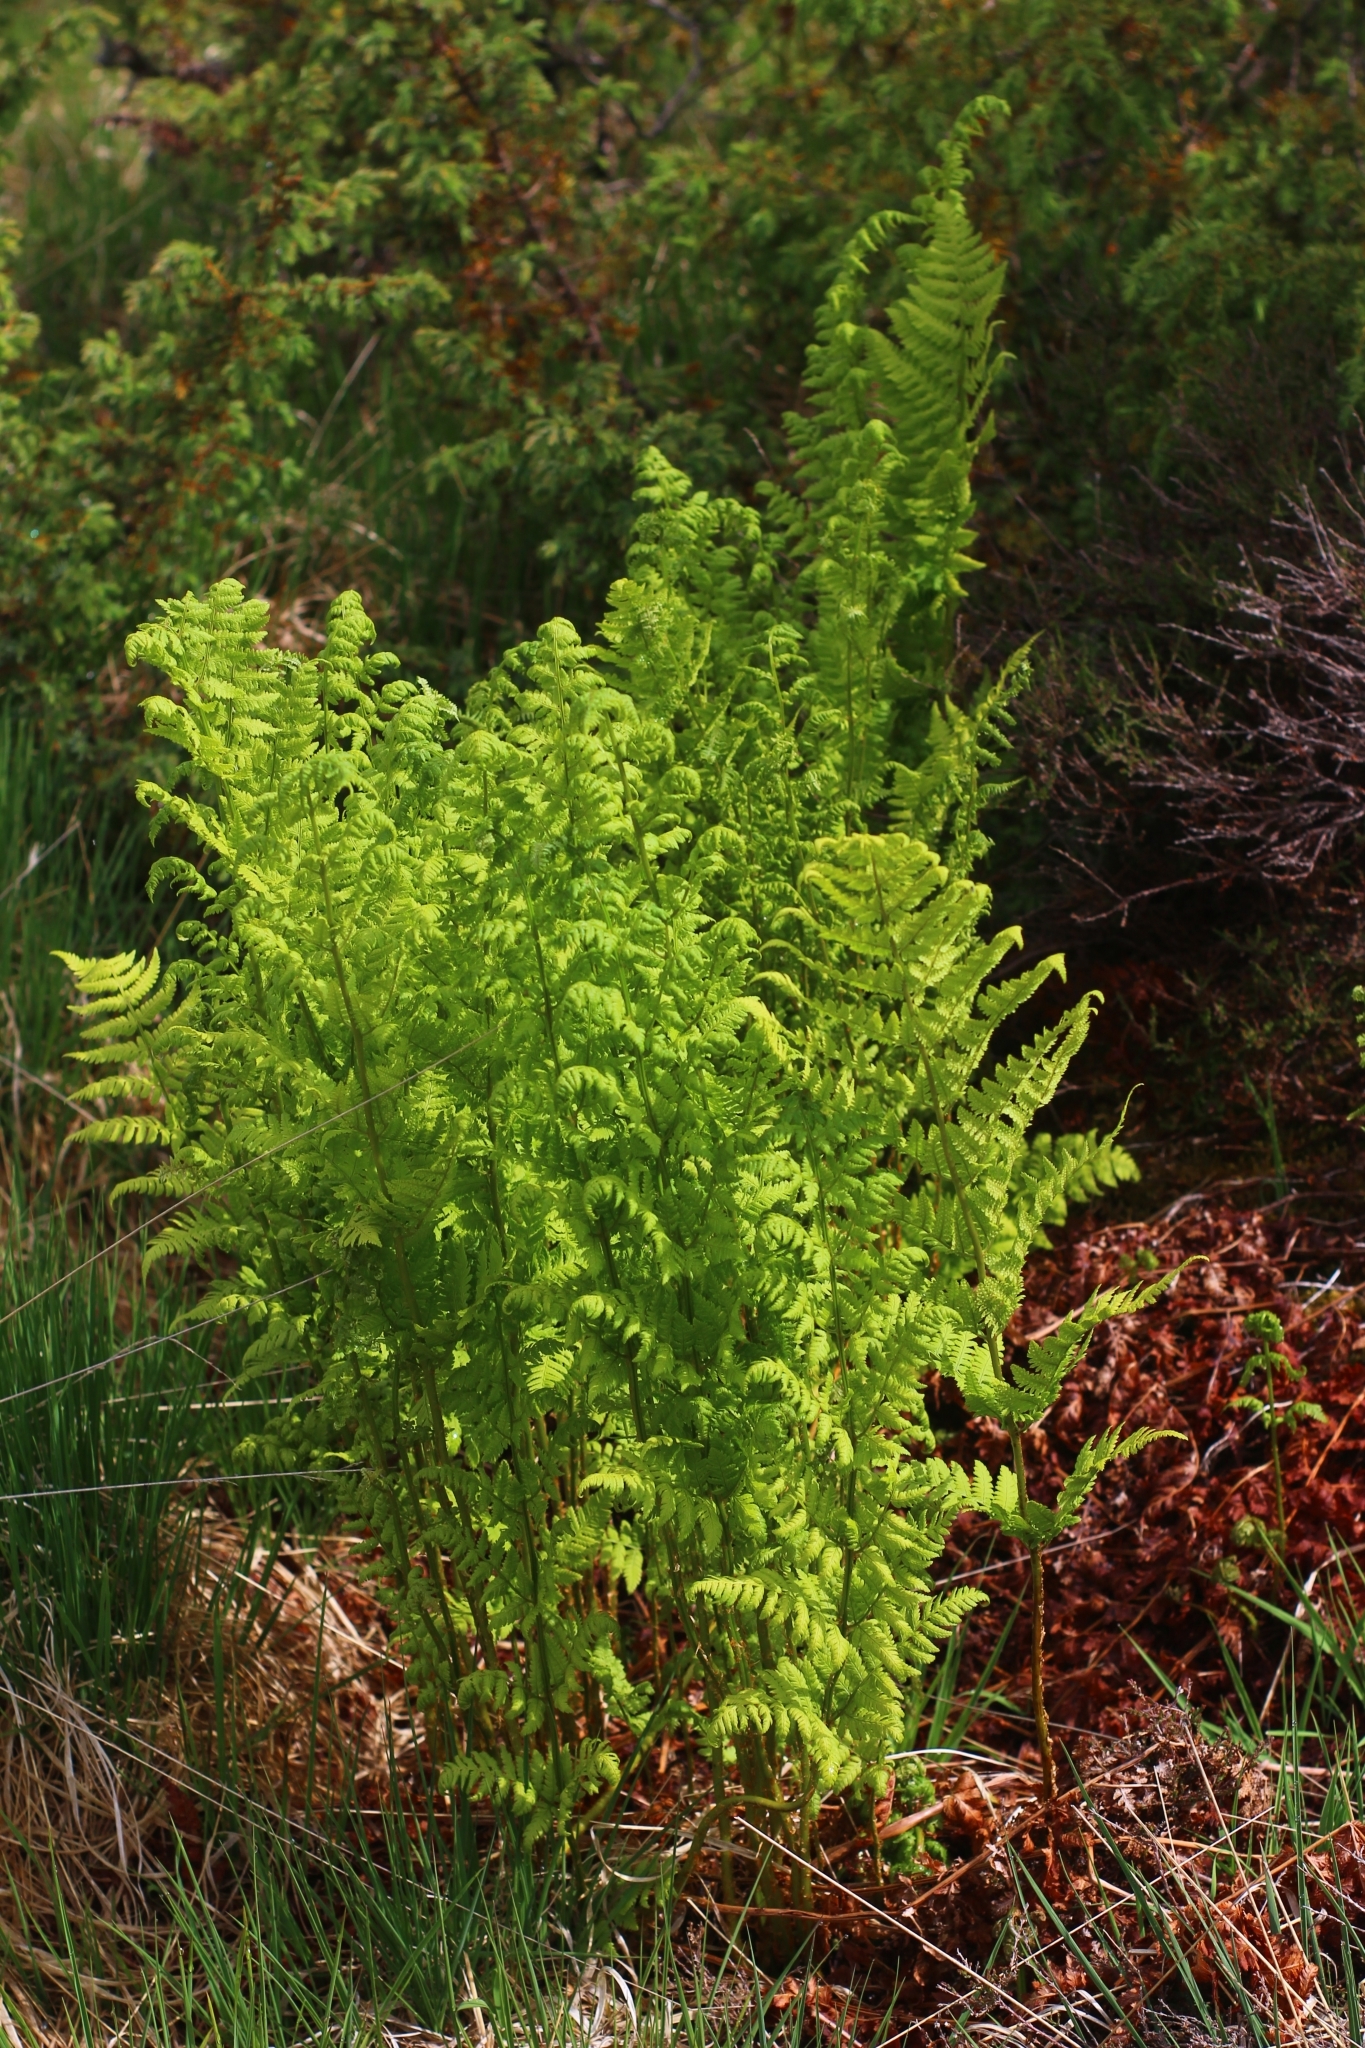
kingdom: Plantae
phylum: Tracheophyta
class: Polypodiopsida
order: Polypodiales
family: Dryopteridaceae
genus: Dryopteris
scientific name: Dryopteris carthusiana
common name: Narrow buckler-fern
